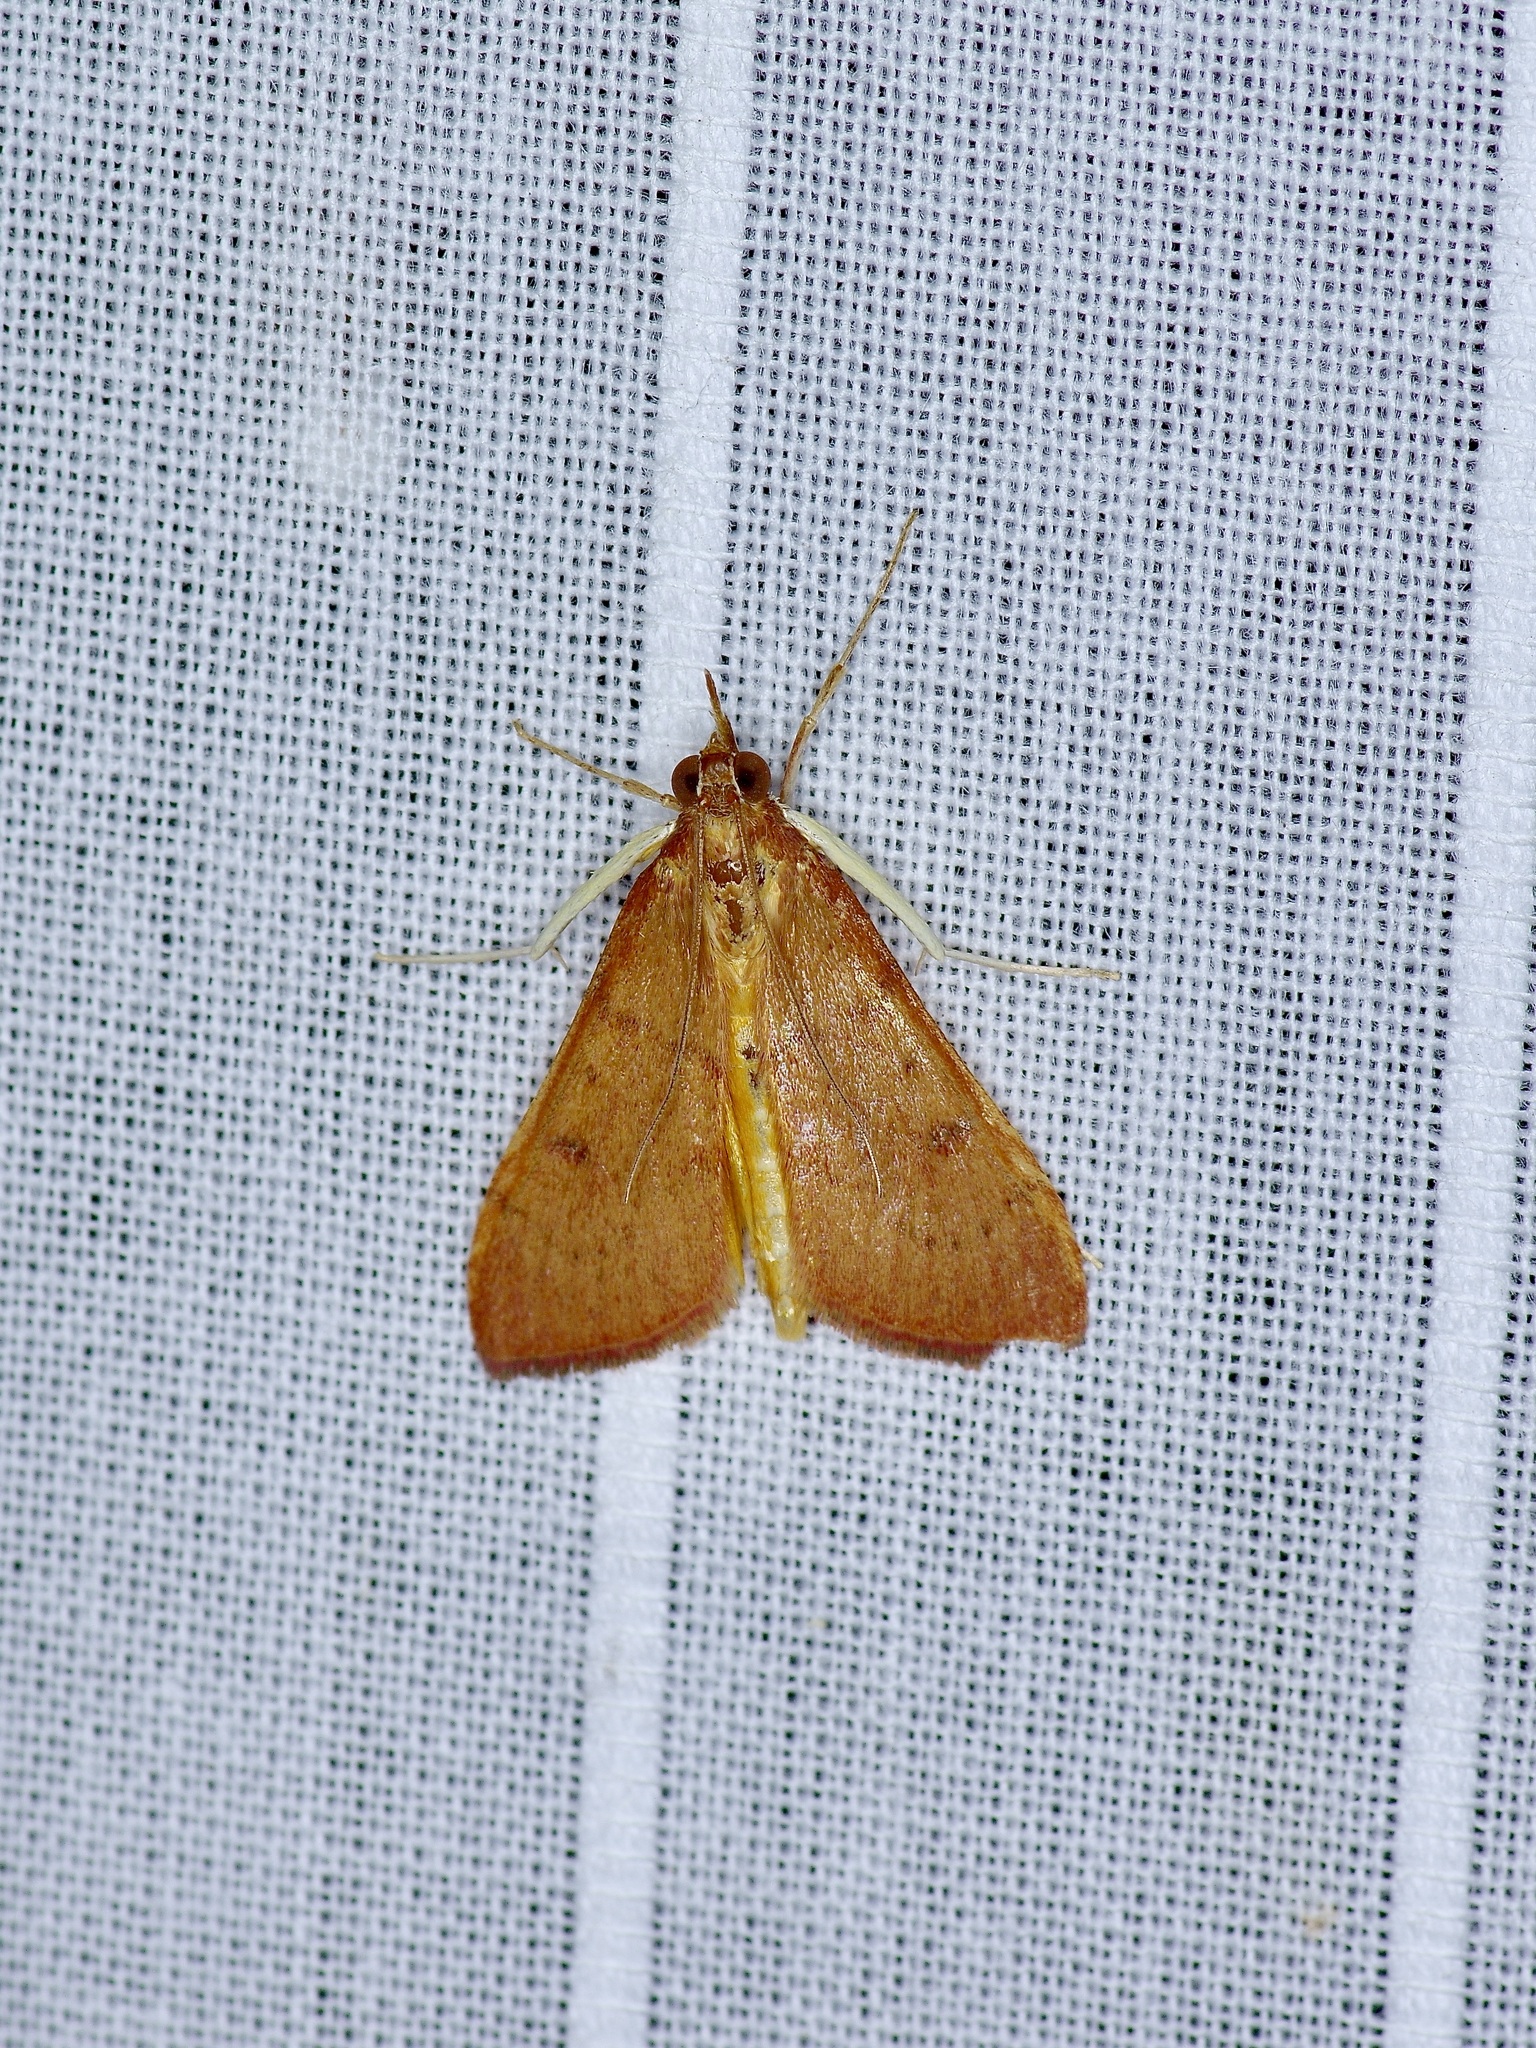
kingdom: Animalia
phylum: Arthropoda
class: Insecta
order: Lepidoptera
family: Crambidae
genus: Uresiphita
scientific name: Uresiphita reversalis
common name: Genista broom moth
